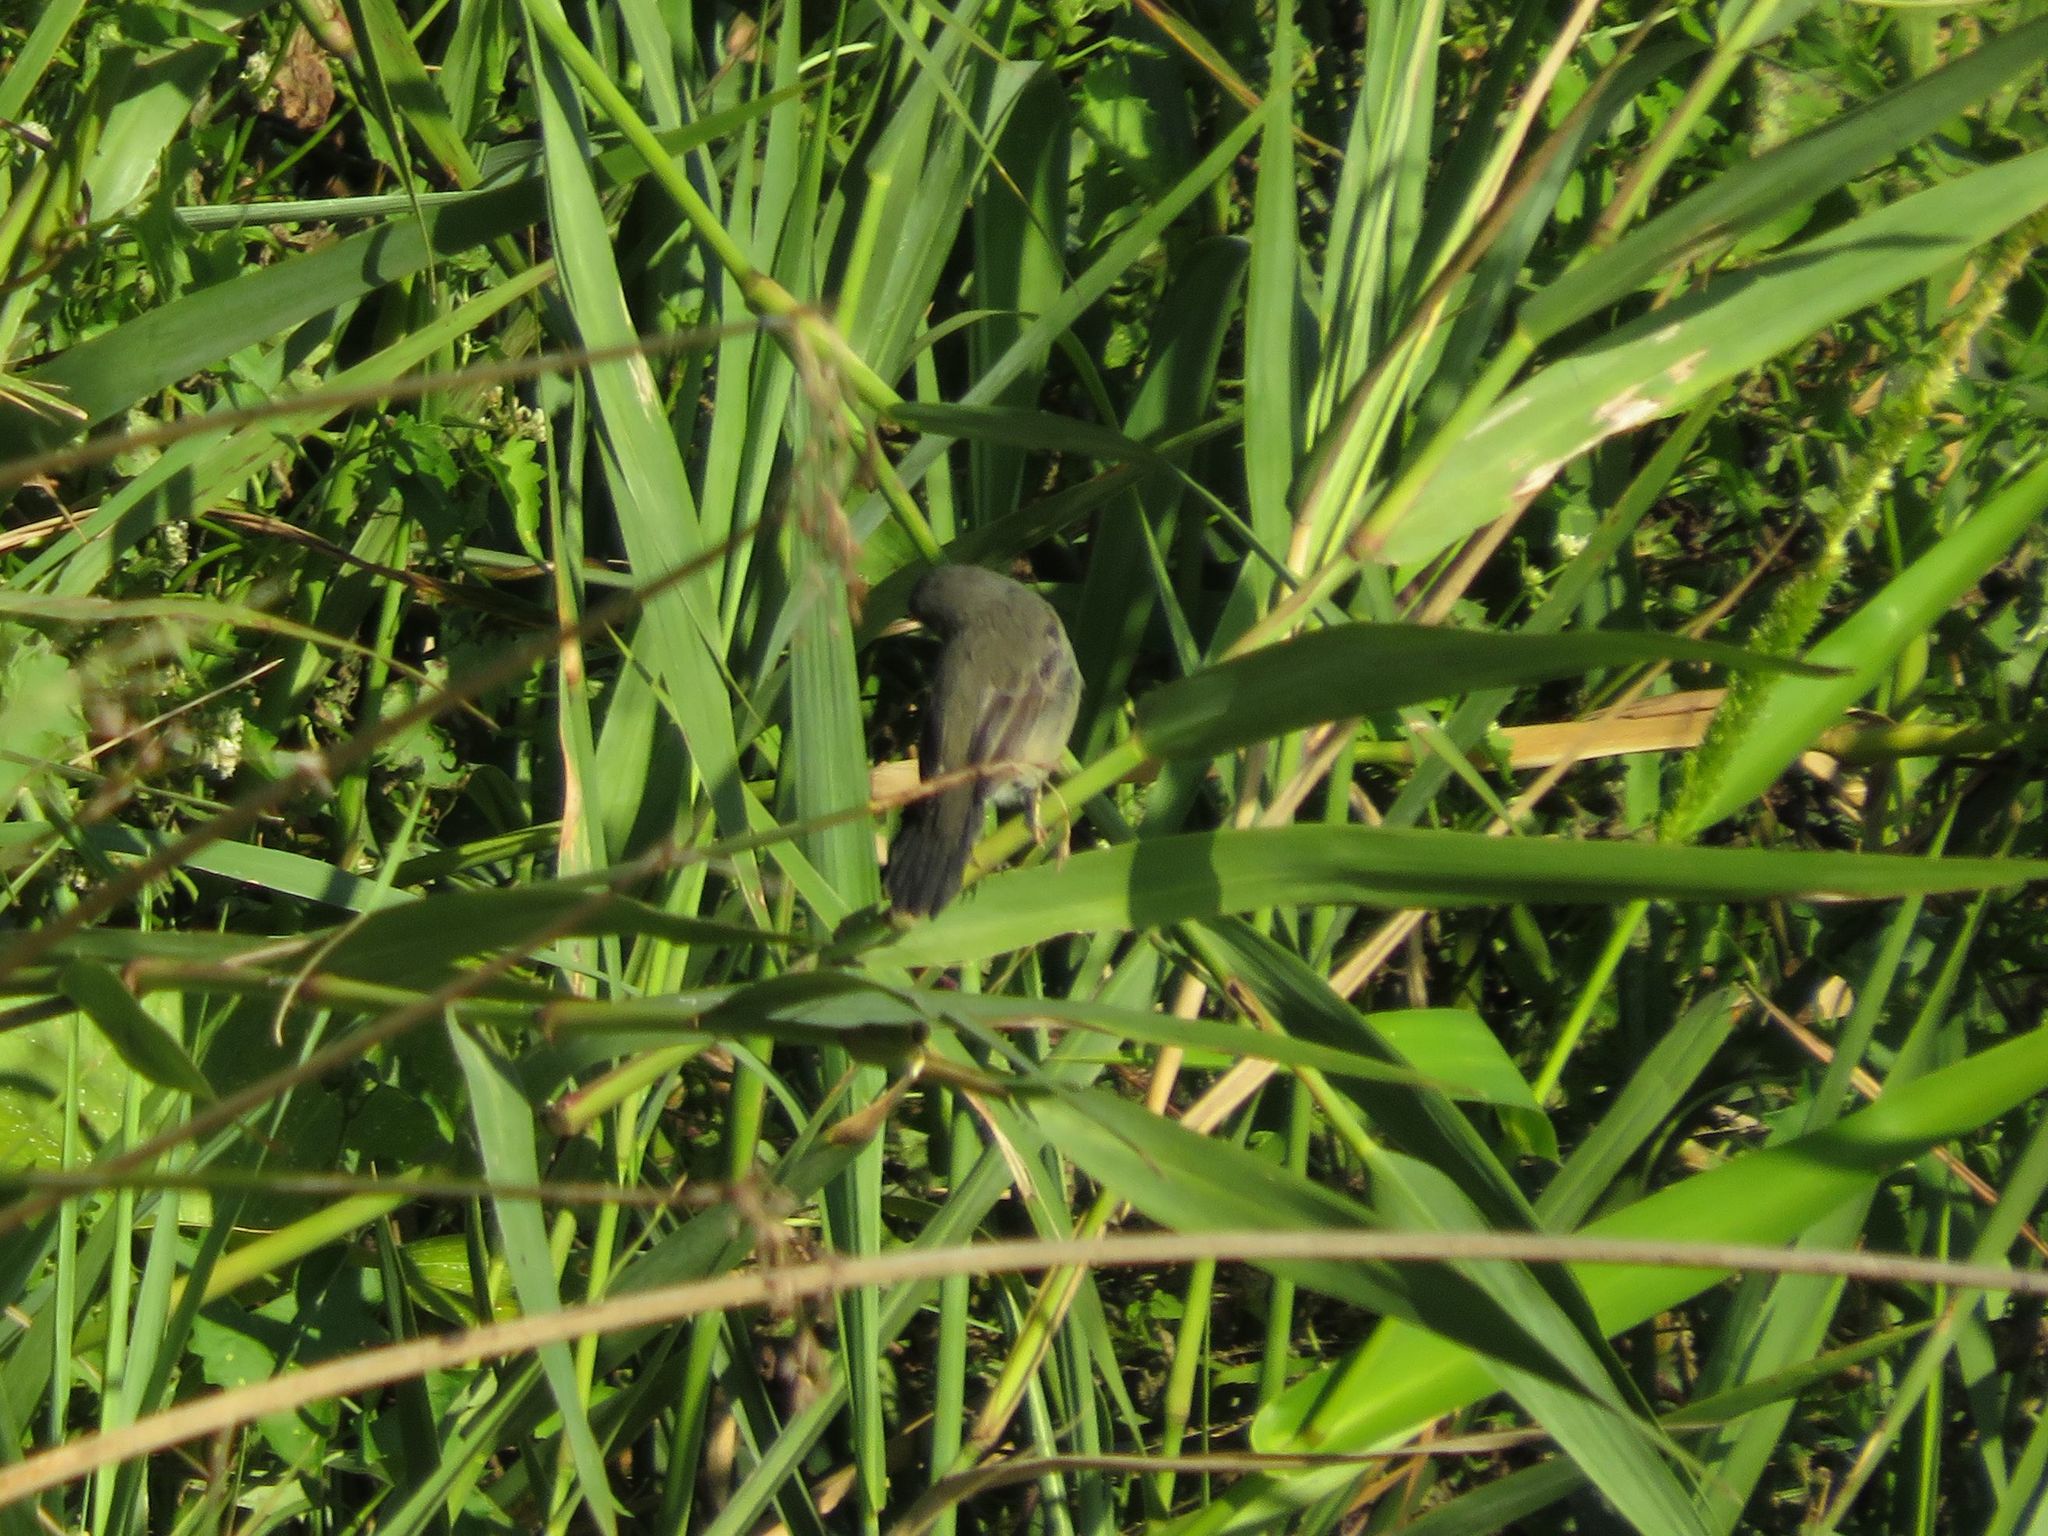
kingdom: Animalia
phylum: Chordata
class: Aves
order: Passeriformes
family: Tyrannidae
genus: Serpophaga
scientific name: Serpophaga nigricans
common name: Sooty tyrannulet
